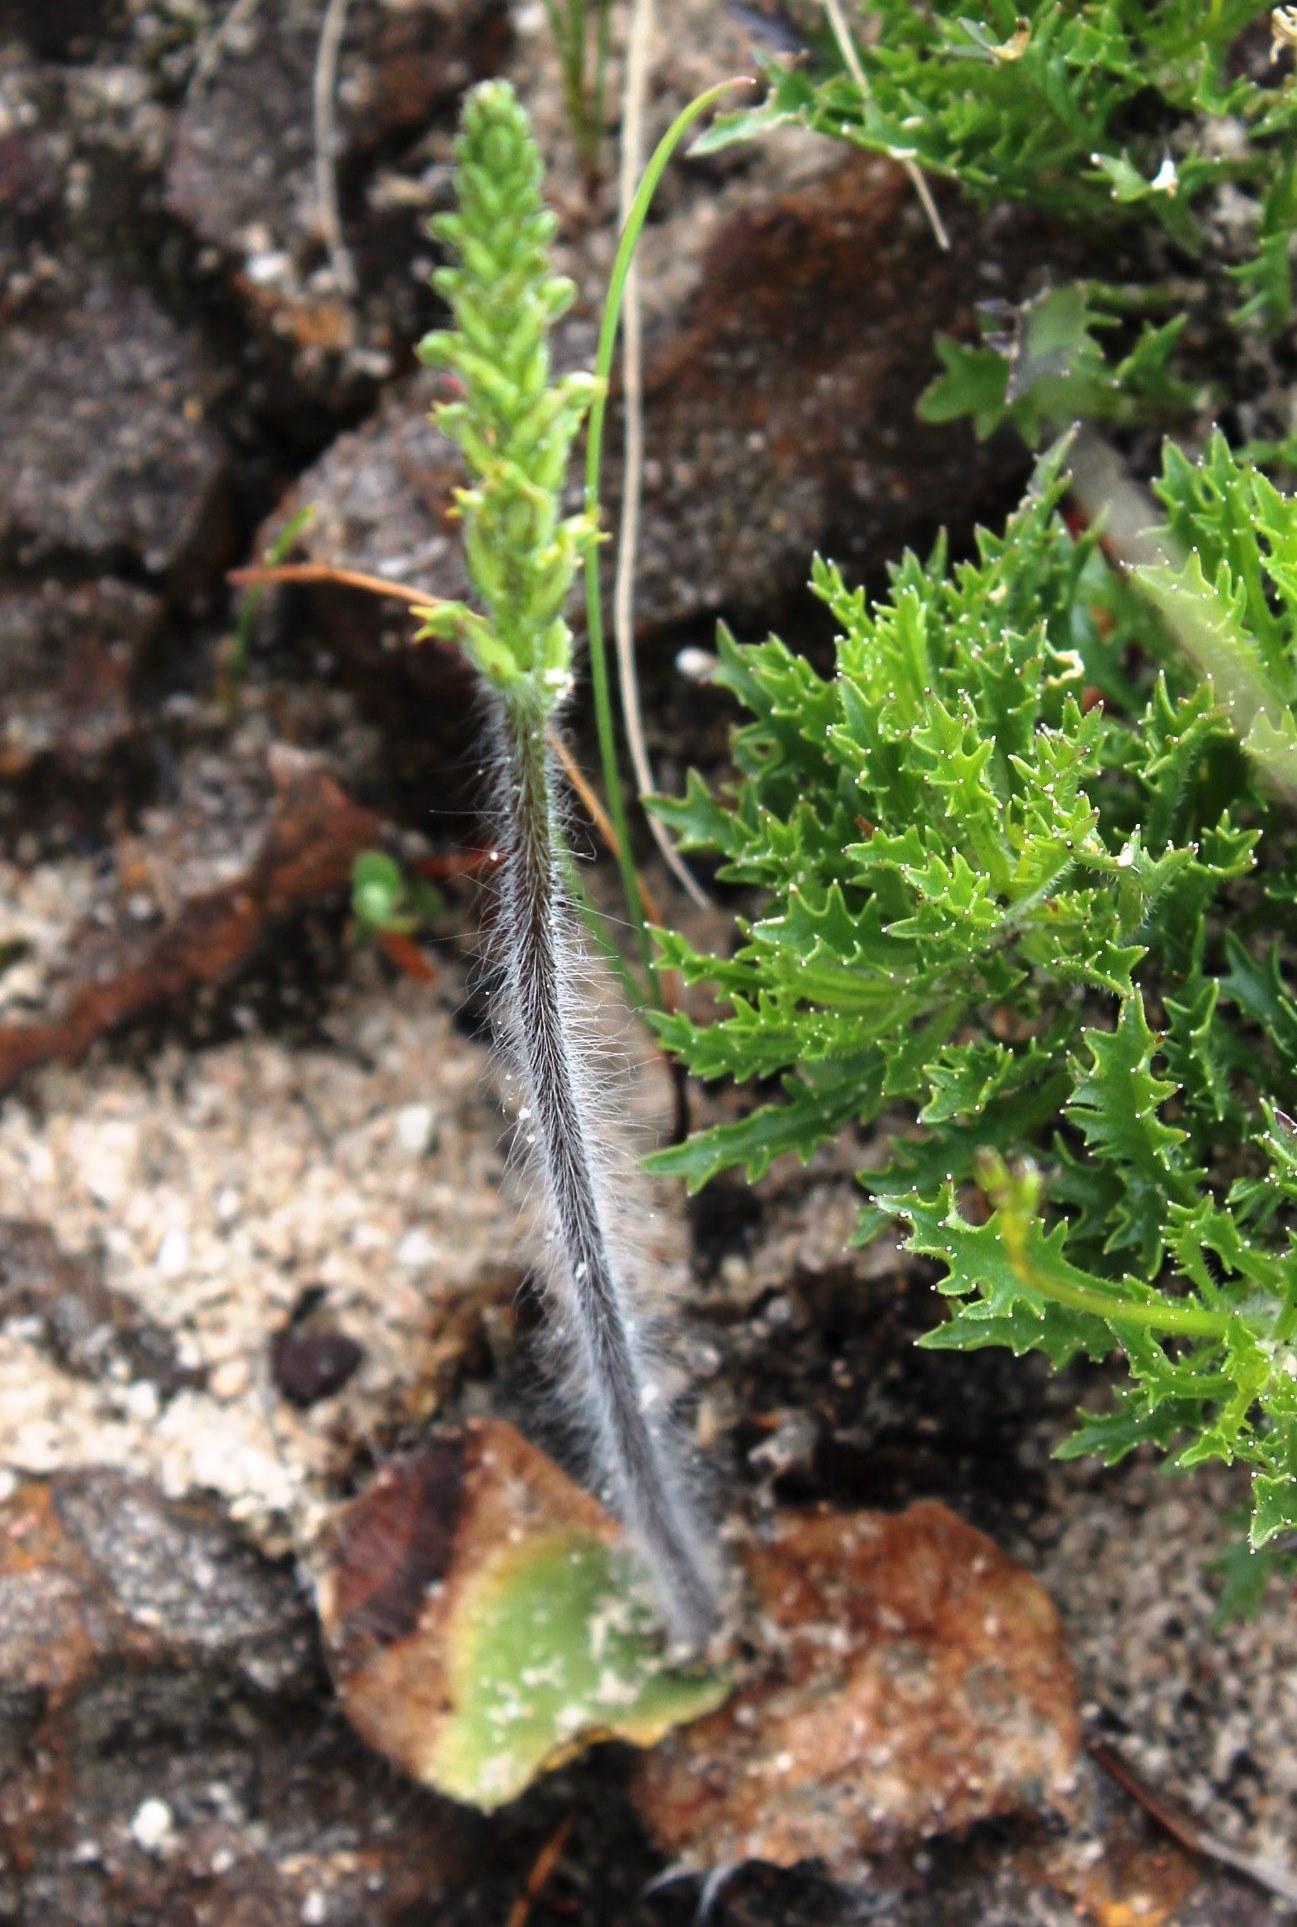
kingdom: Plantae
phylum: Tracheophyta
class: Liliopsida
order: Asparagales
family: Orchidaceae
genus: Holothrix
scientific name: Holothrix villosa
